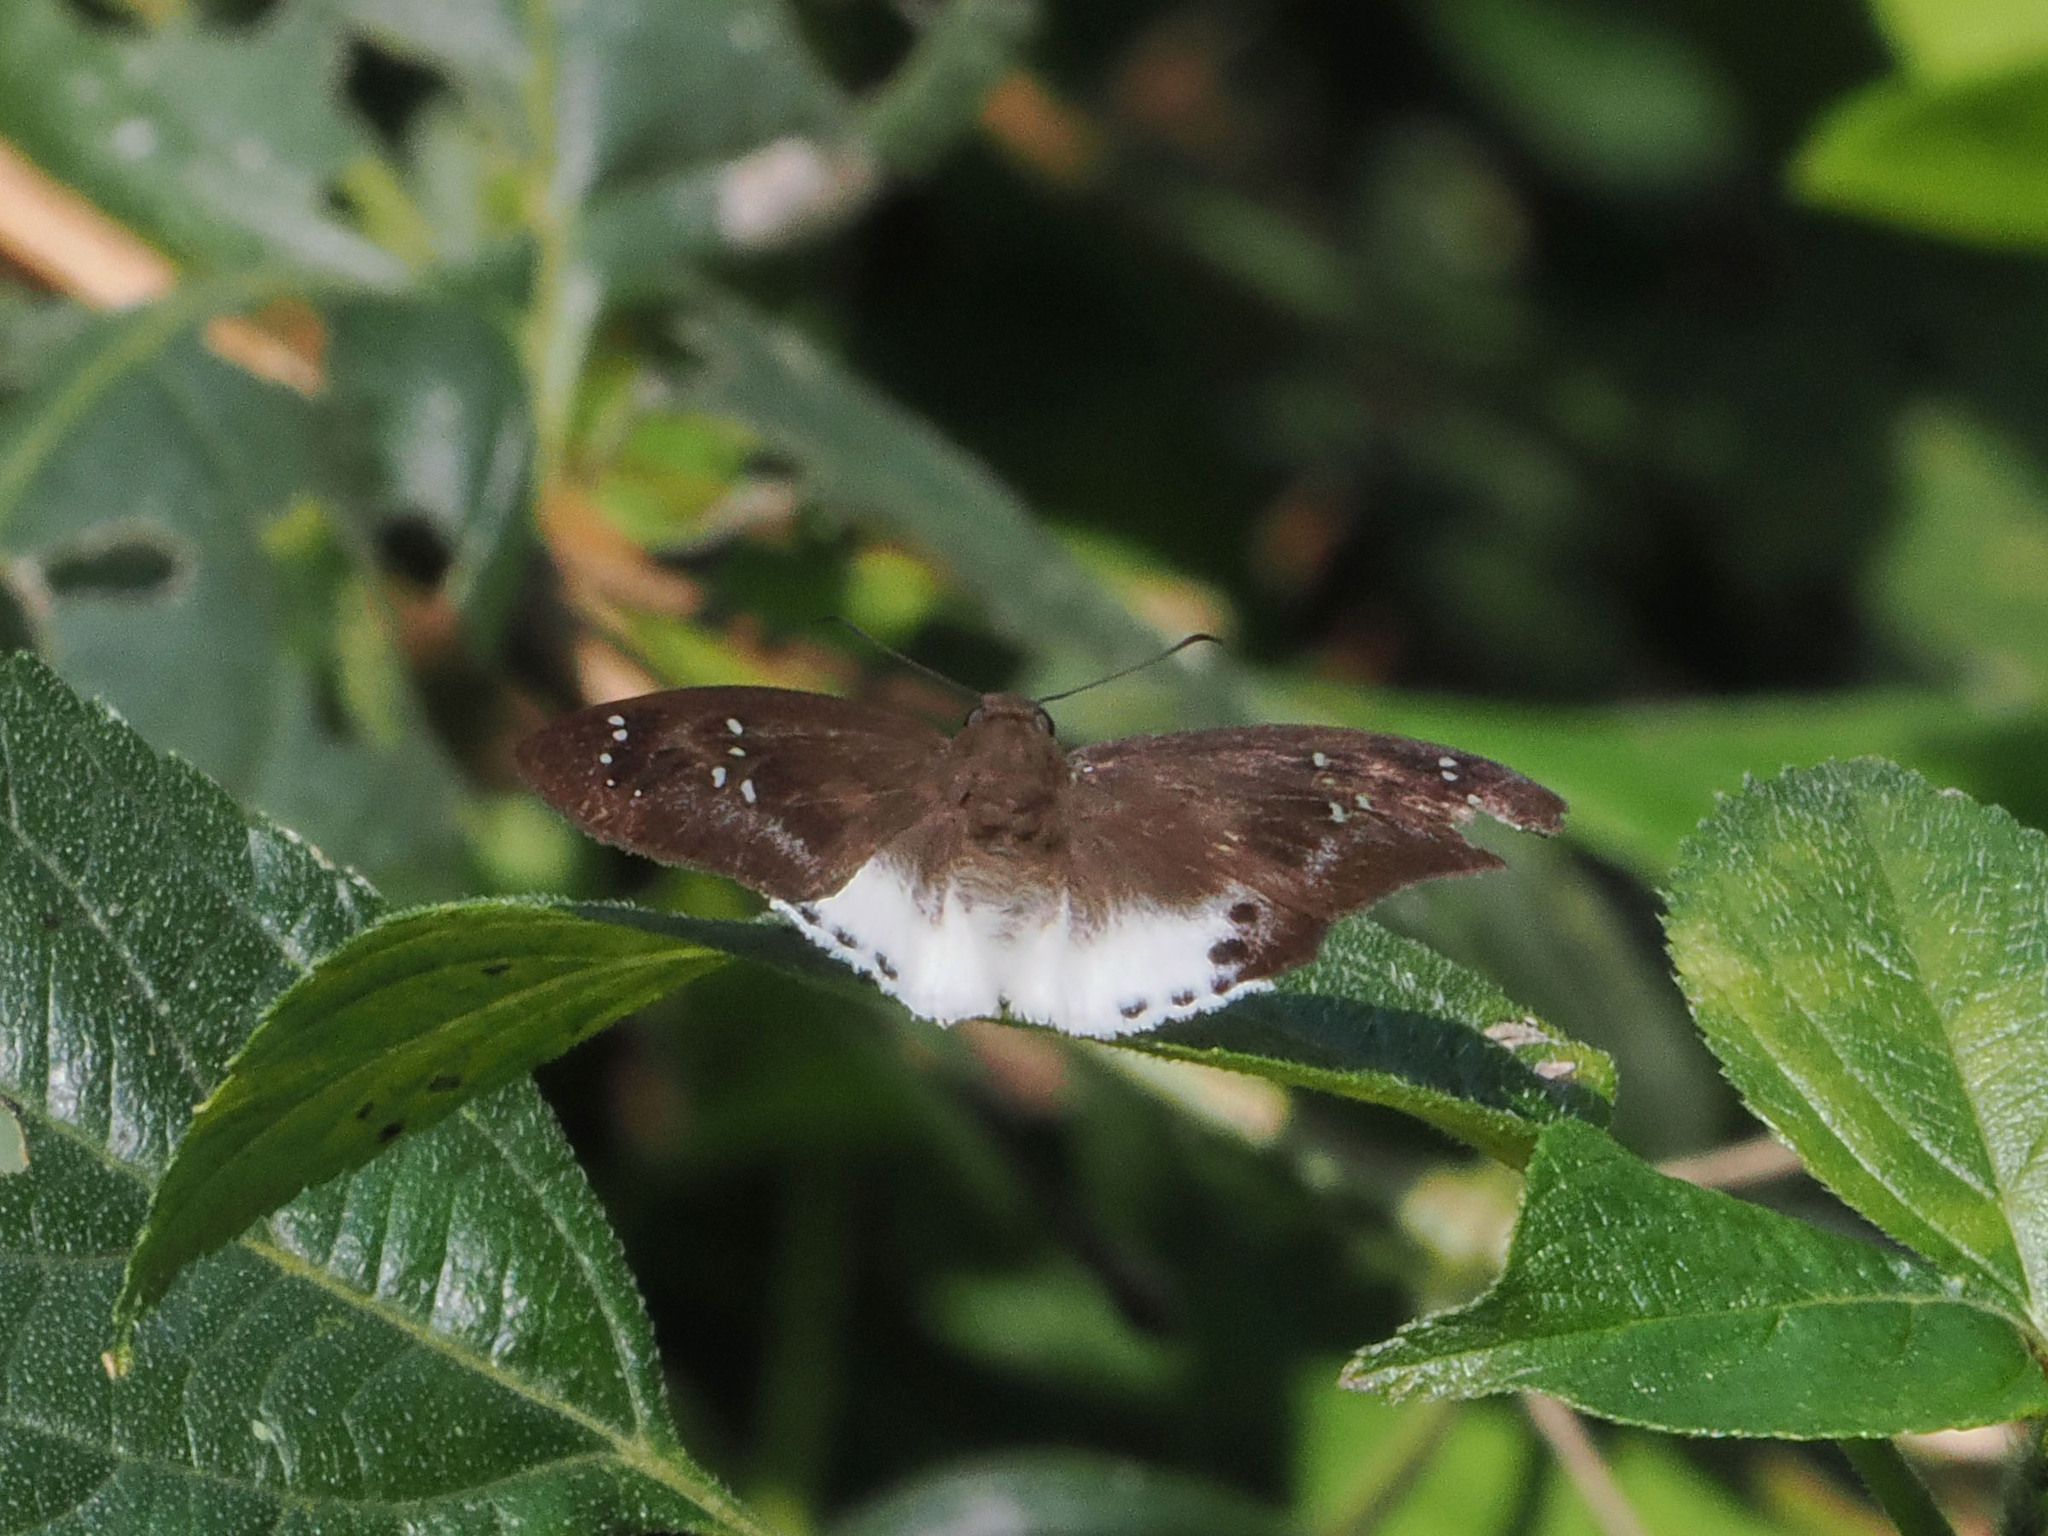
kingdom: Animalia
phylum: Arthropoda
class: Insecta
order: Lepidoptera
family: Hesperiidae
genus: Tagiades
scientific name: Tagiades japetus
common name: Pied flat
